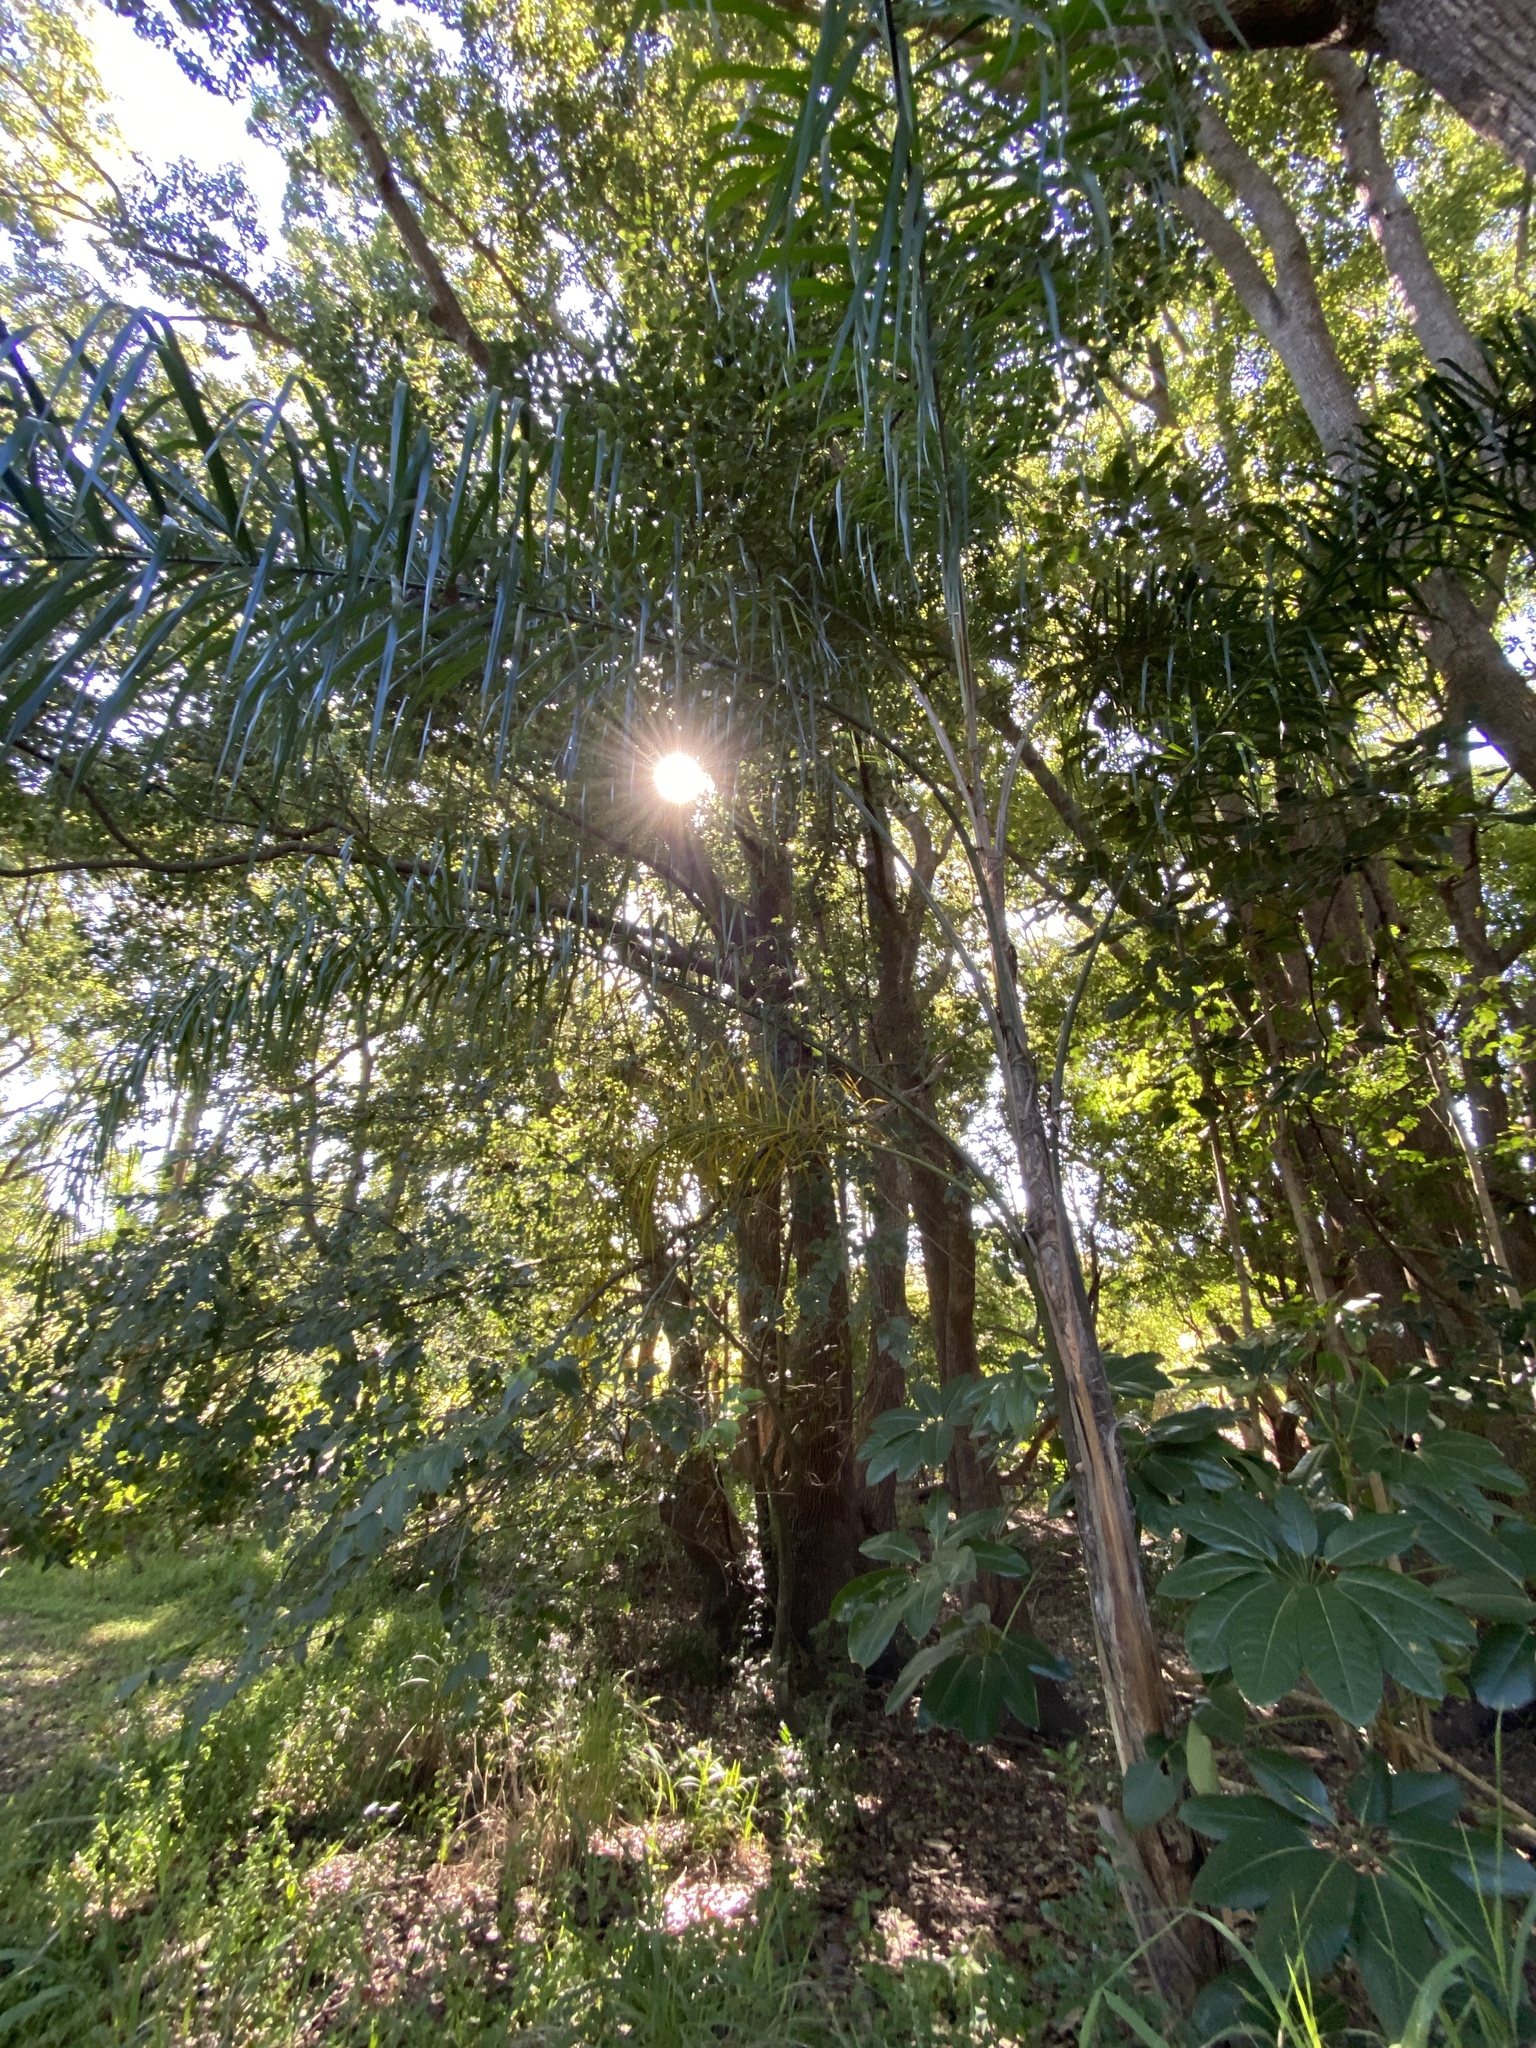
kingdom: Plantae
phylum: Tracheophyta
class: Liliopsida
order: Arecales
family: Arecaceae
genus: Syagrus
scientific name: Syagrus romanzoffiana
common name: Queen palm
